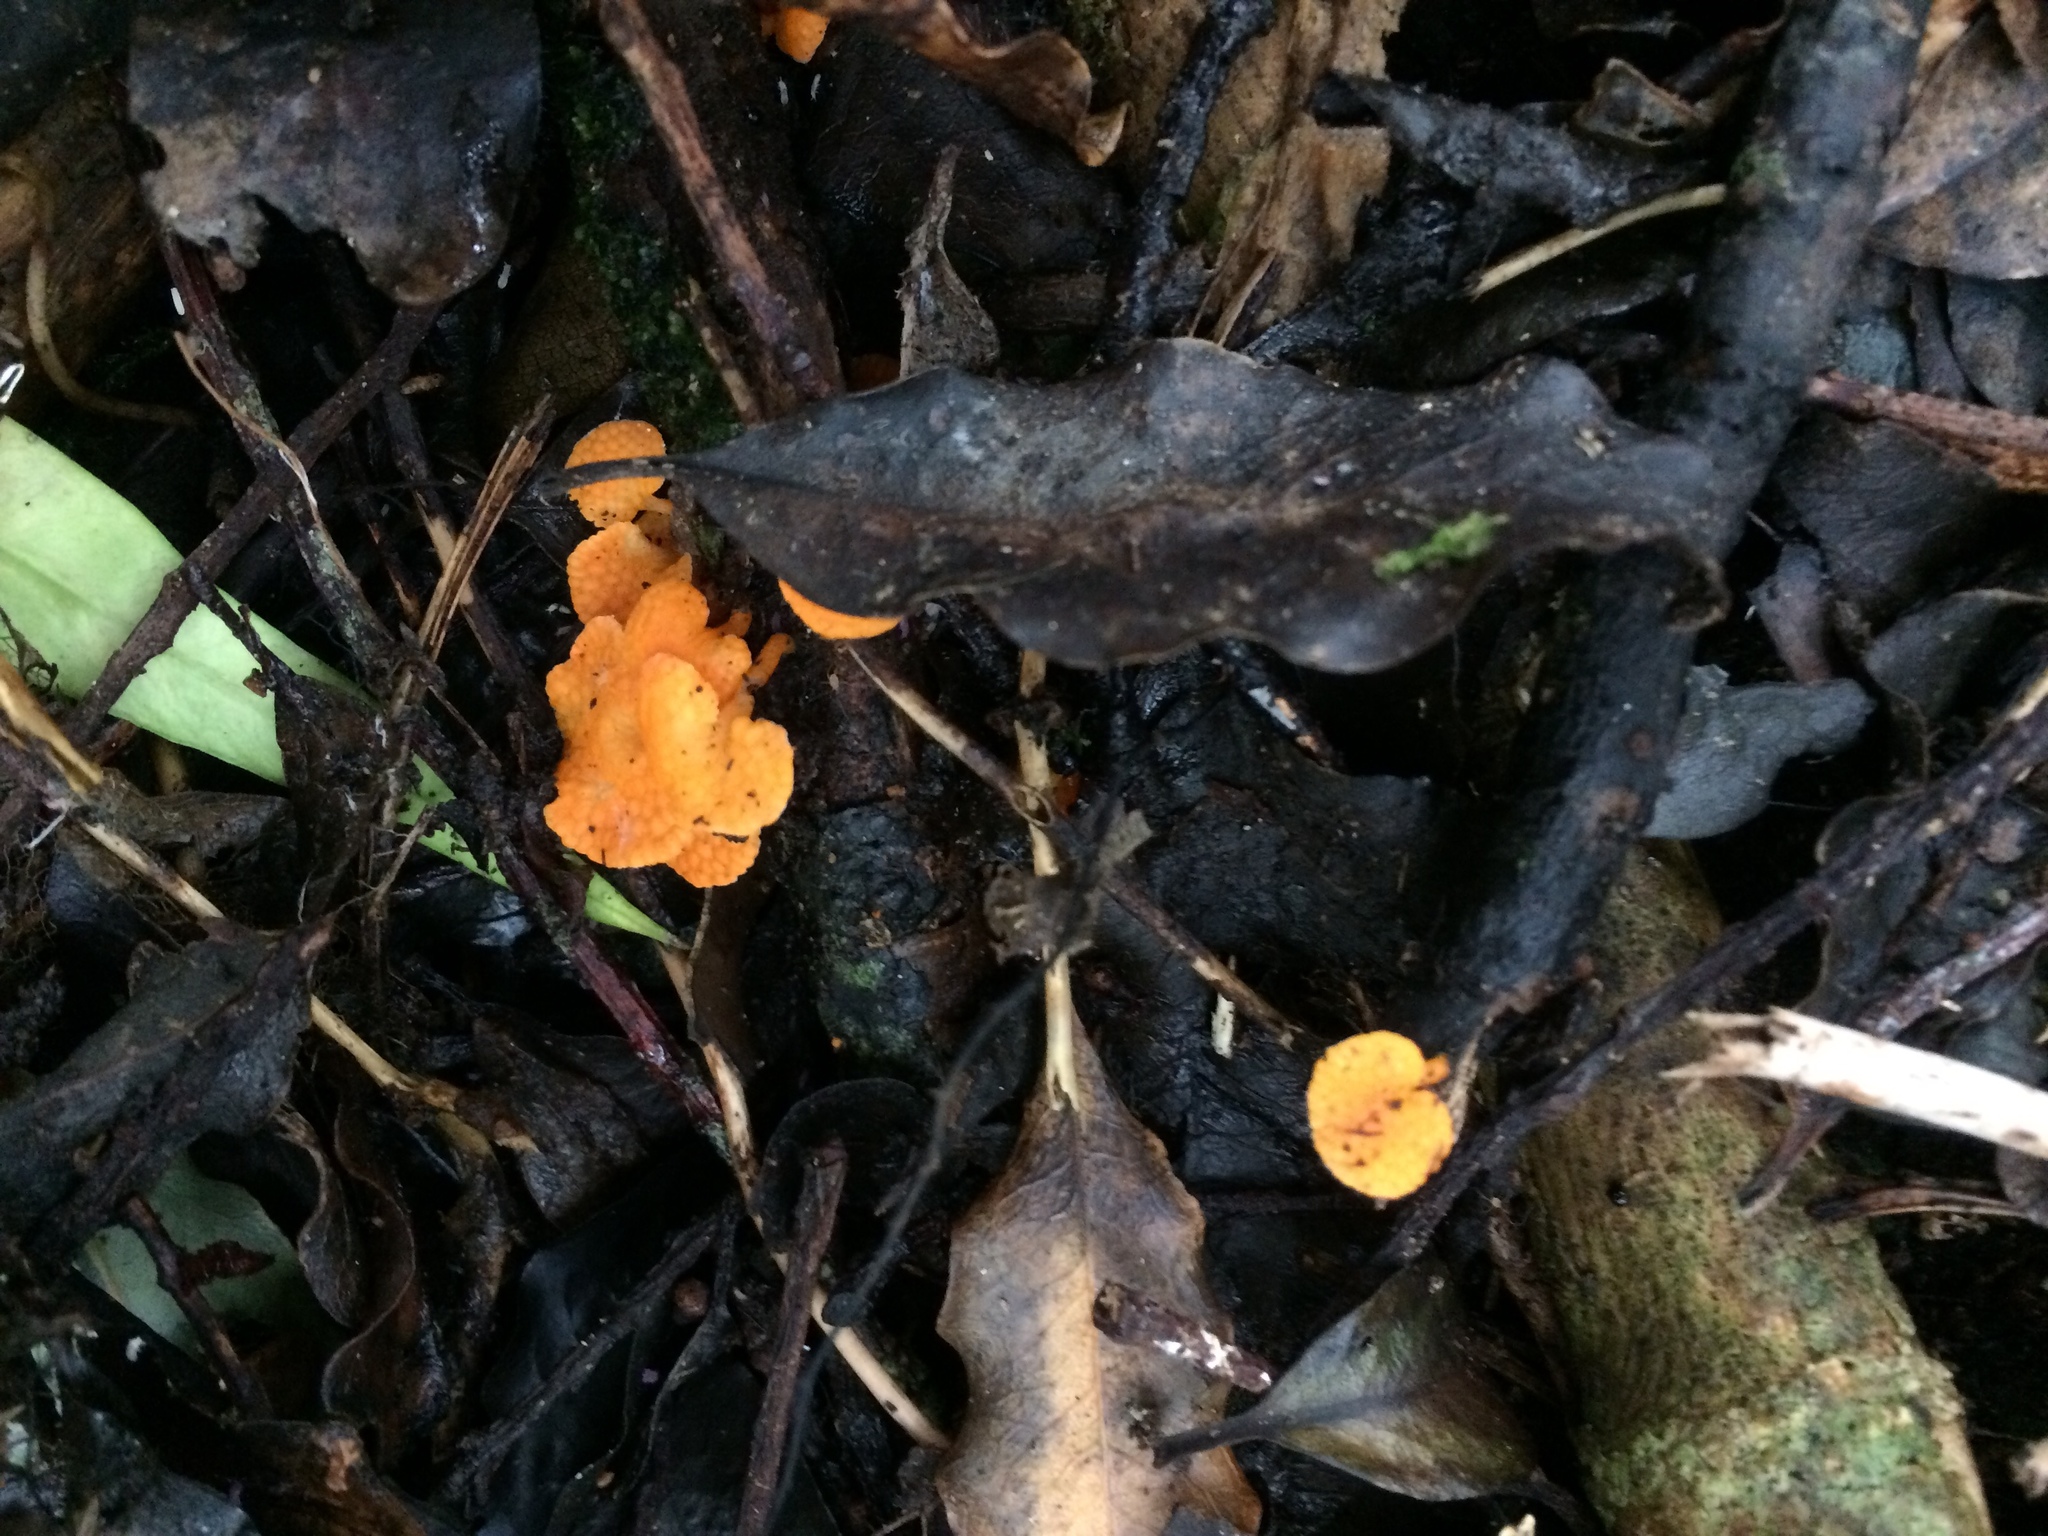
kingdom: Fungi
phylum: Basidiomycota
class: Agaricomycetes
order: Agaricales
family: Mycenaceae
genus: Favolaschia
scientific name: Favolaschia claudopus
